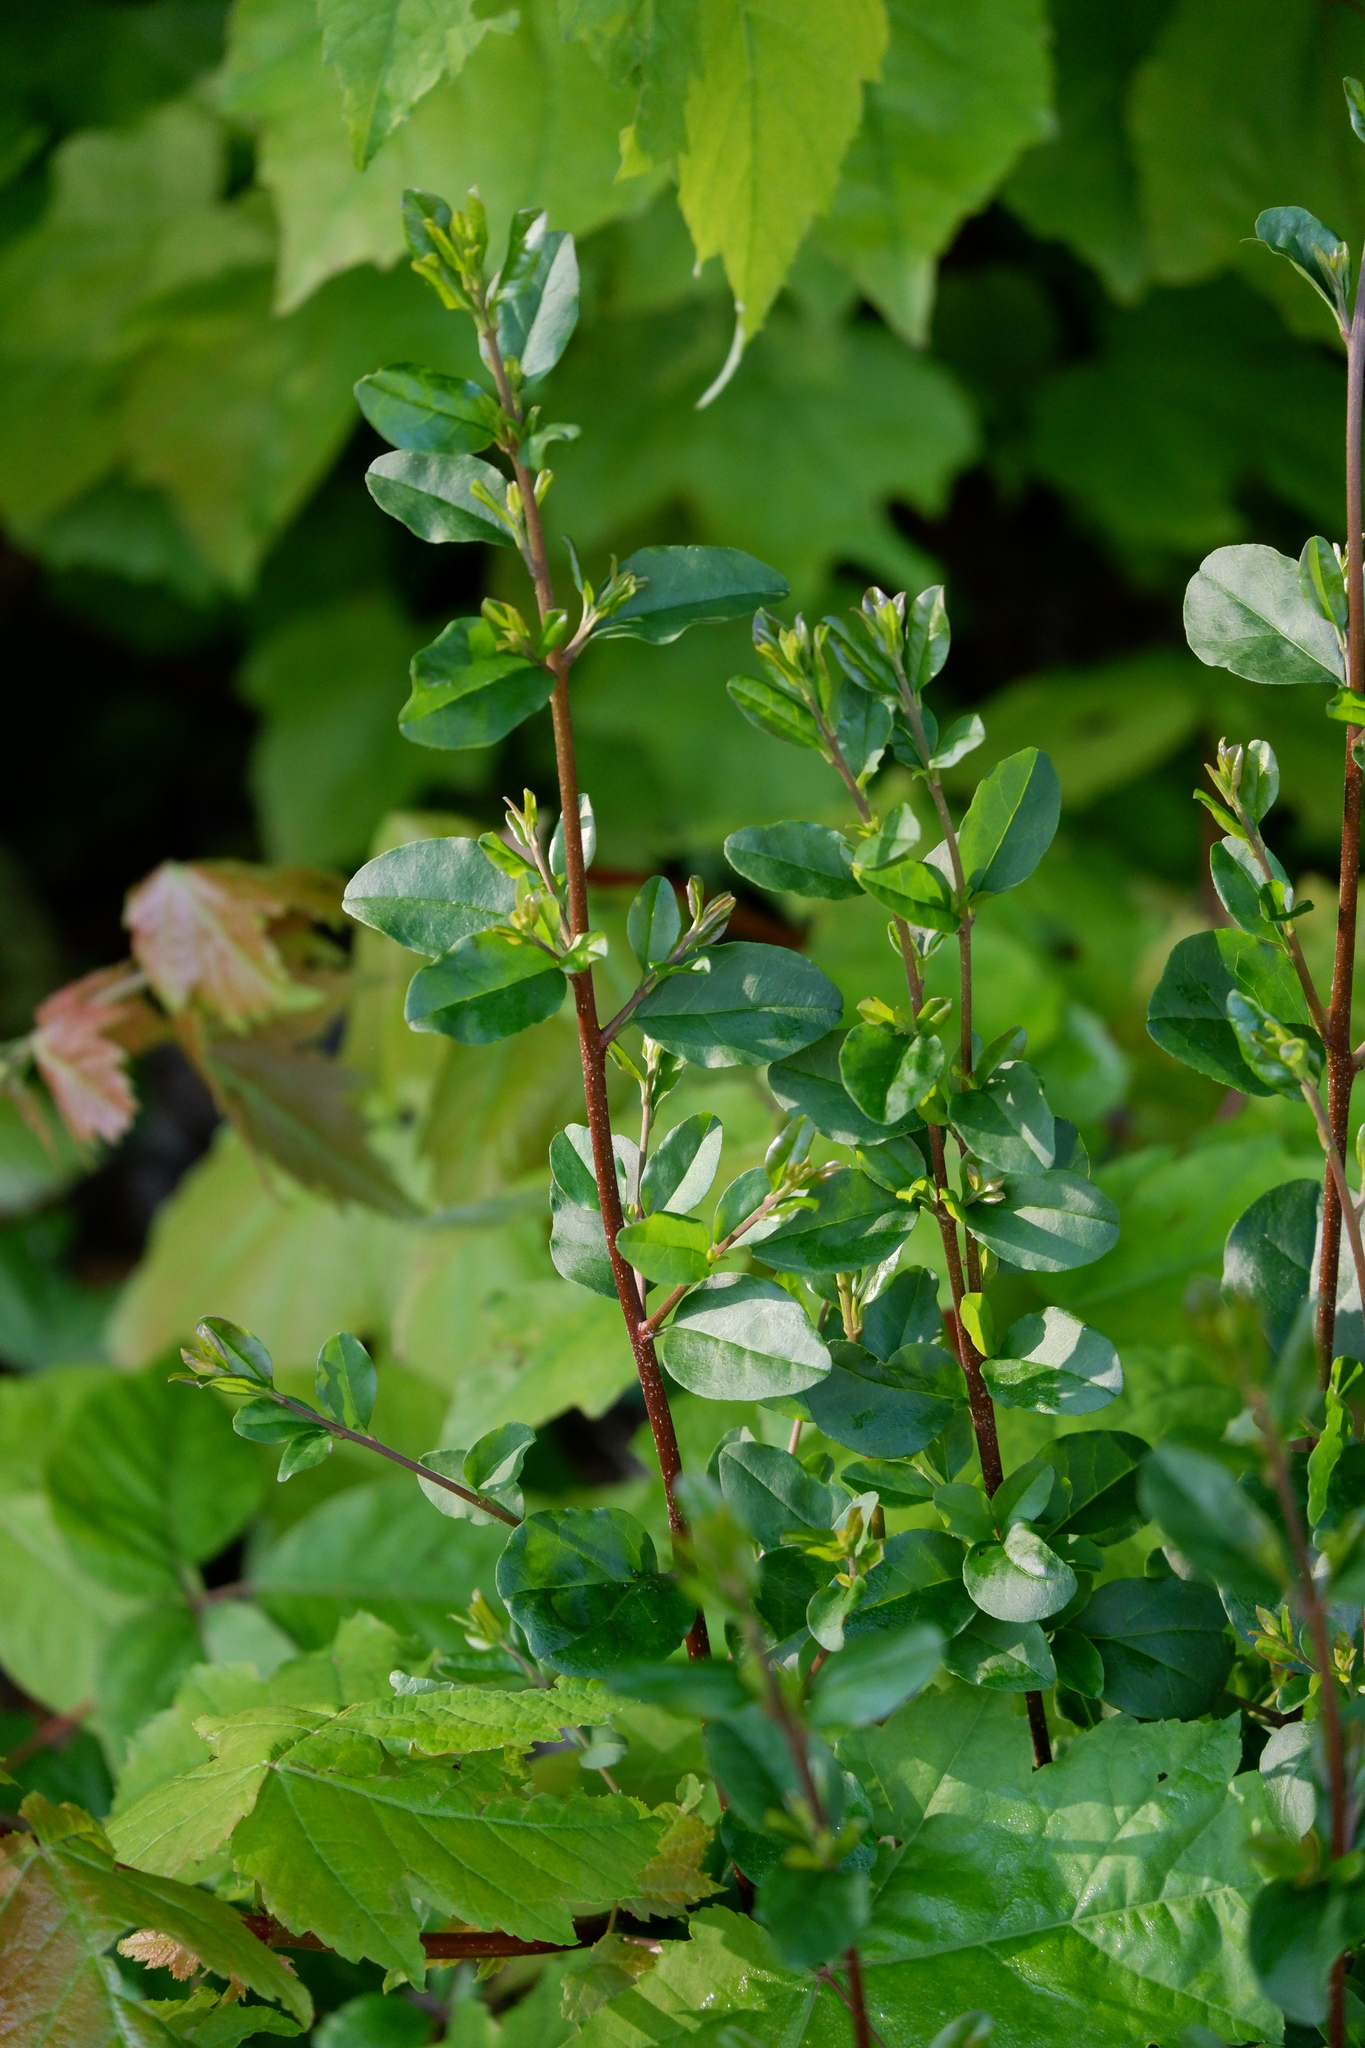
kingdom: Plantae
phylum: Tracheophyta
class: Magnoliopsida
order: Rosales
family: Elaeagnaceae
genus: Elaeagnus
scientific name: Elaeagnus umbellata
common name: Autumn olive
